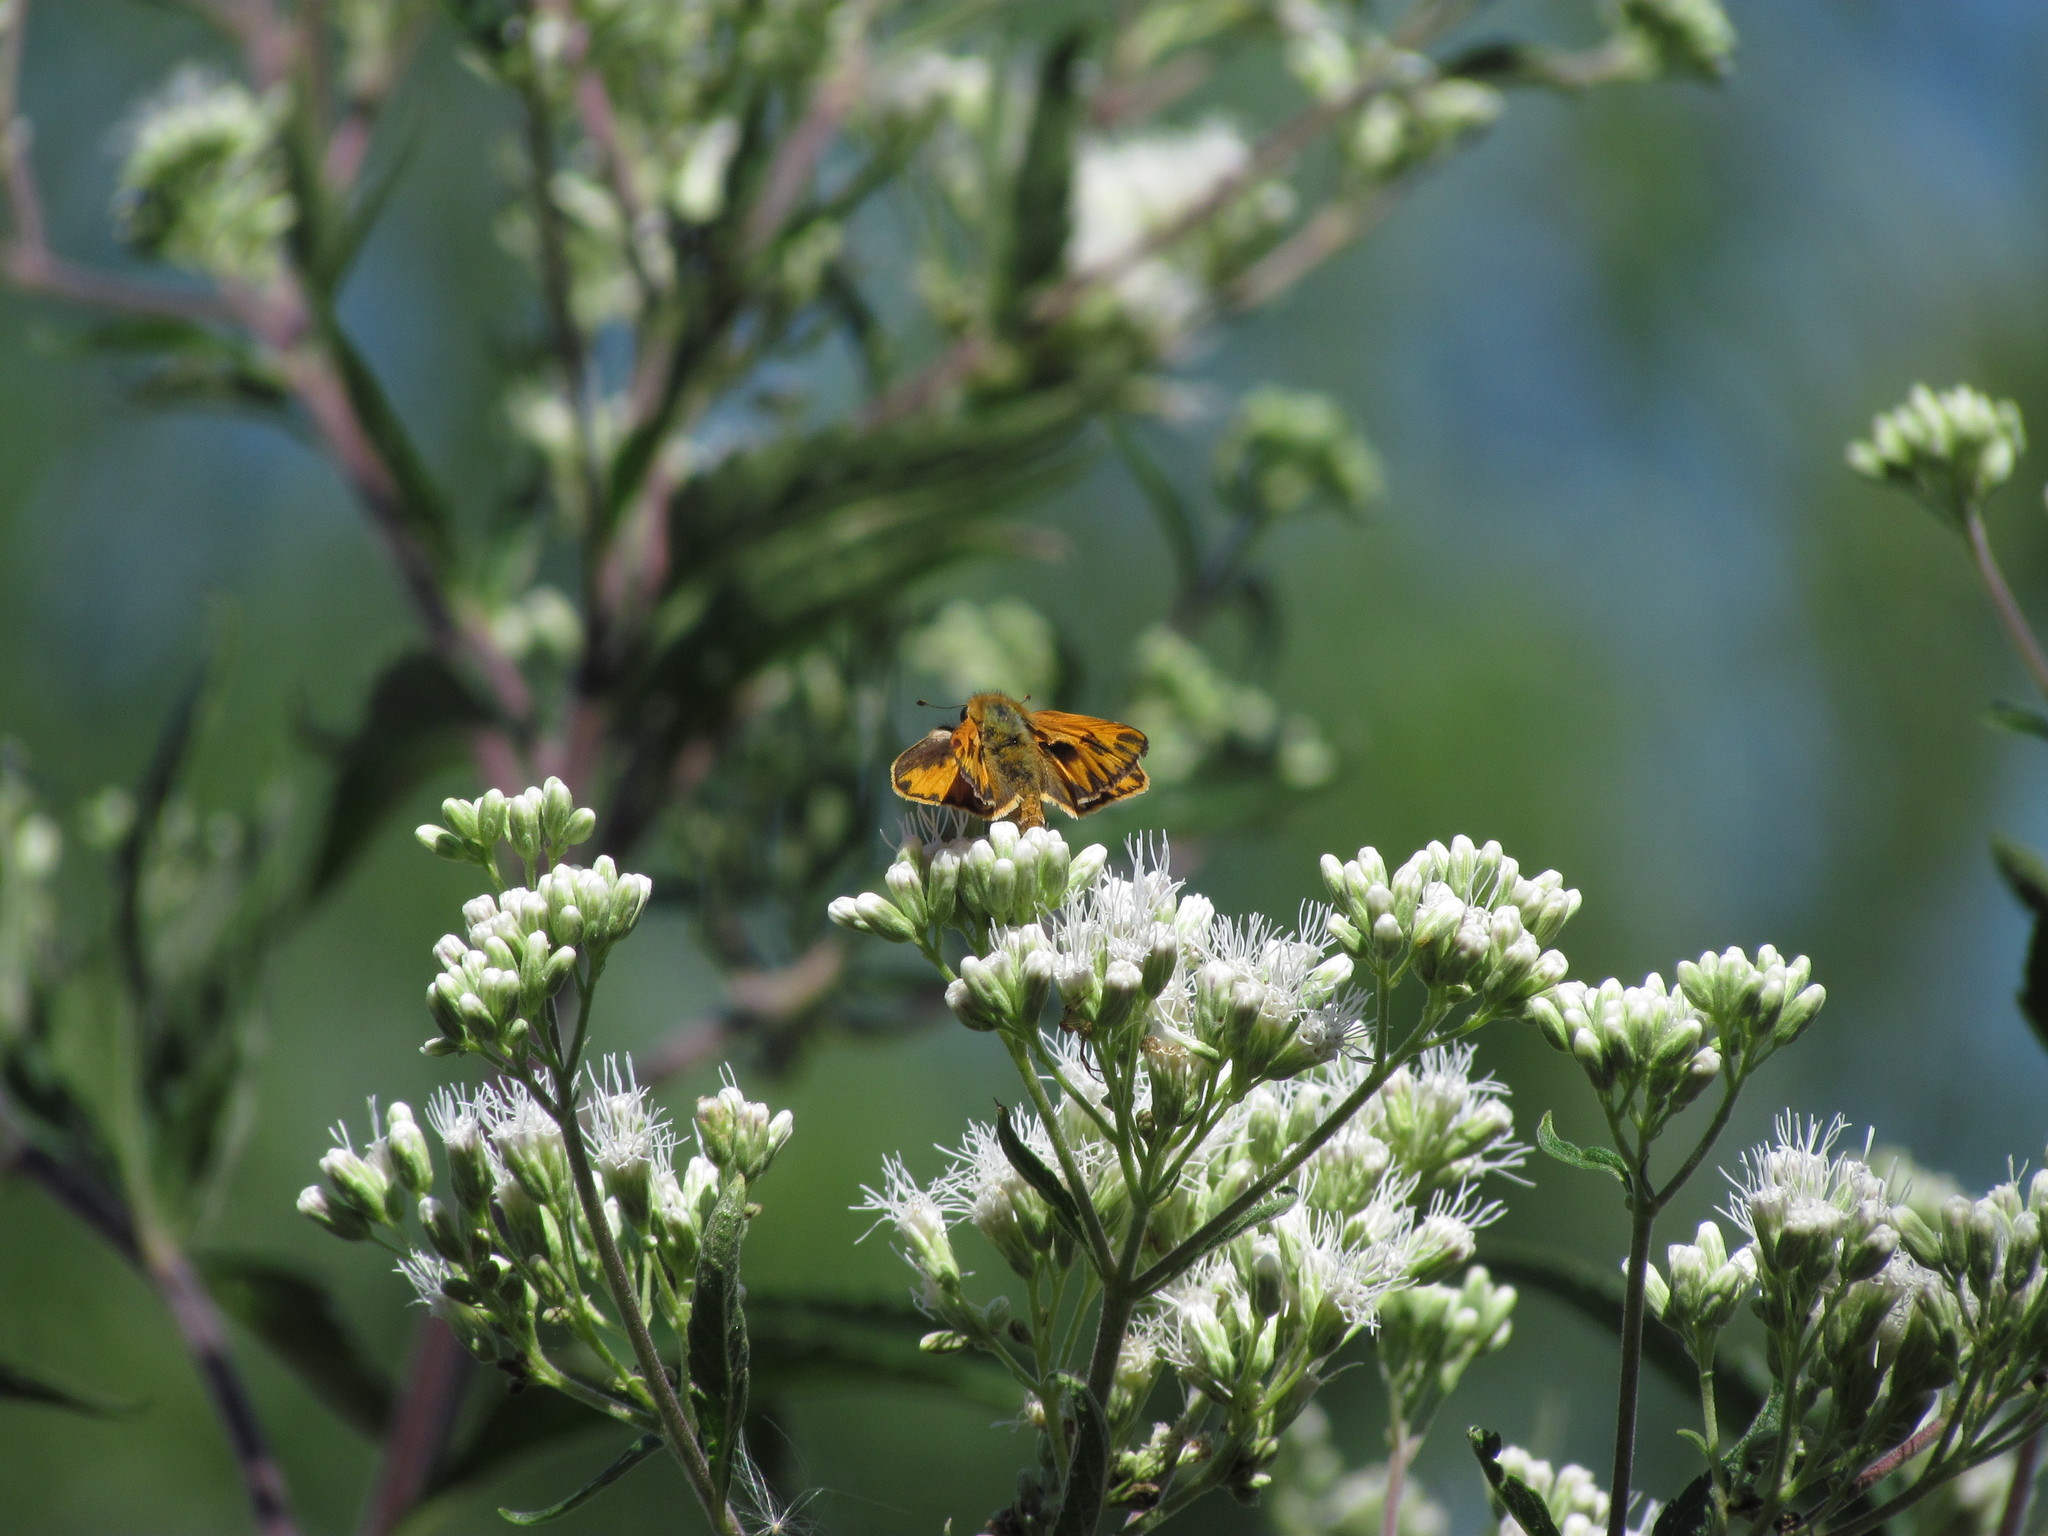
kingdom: Animalia
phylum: Arthropoda
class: Insecta
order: Lepidoptera
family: Hesperiidae
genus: Hylephila
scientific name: Hylephila phyleus
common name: Fiery skipper
